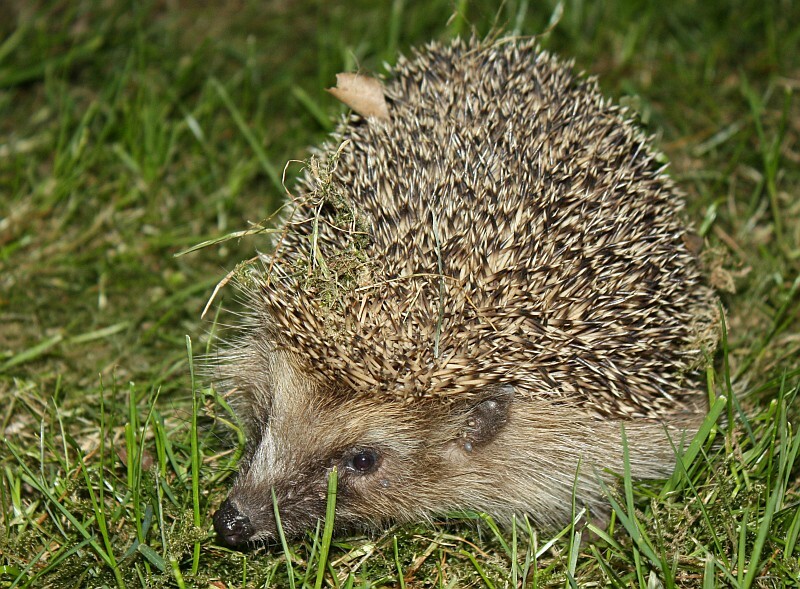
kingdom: Animalia
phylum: Chordata
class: Mammalia
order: Erinaceomorpha
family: Erinaceidae
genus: Erinaceus
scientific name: Erinaceus europaeus
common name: West european hedgehog
